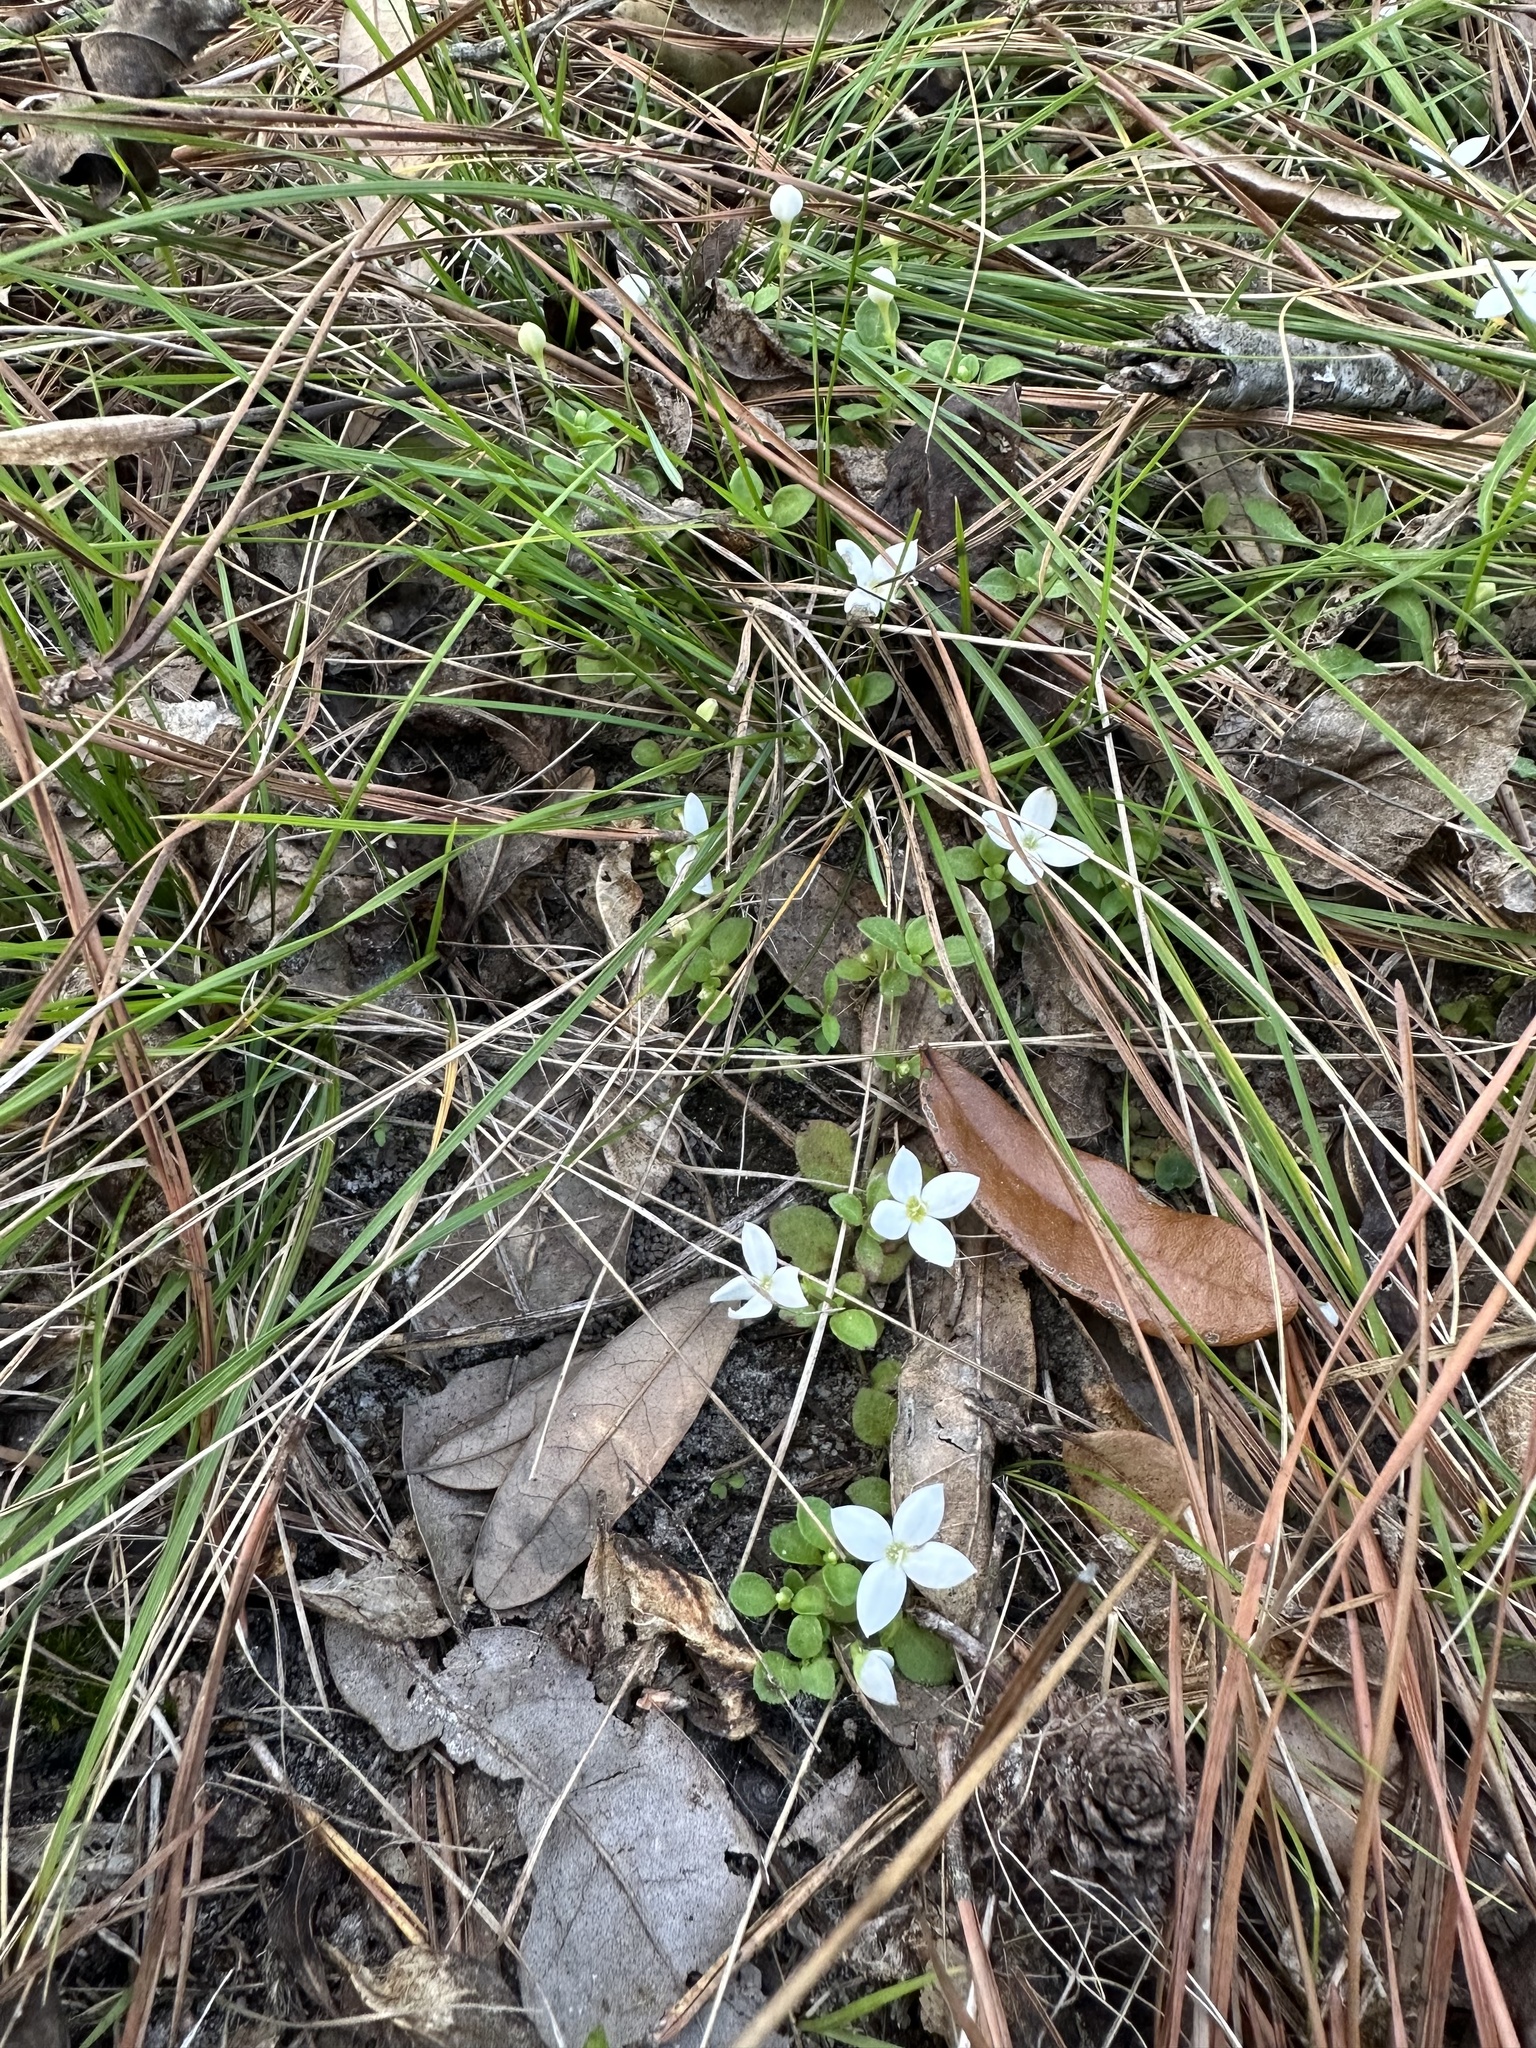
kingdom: Plantae
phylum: Tracheophyta
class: Magnoliopsida
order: Gentianales
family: Rubiaceae
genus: Houstonia
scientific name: Houstonia procumbens
